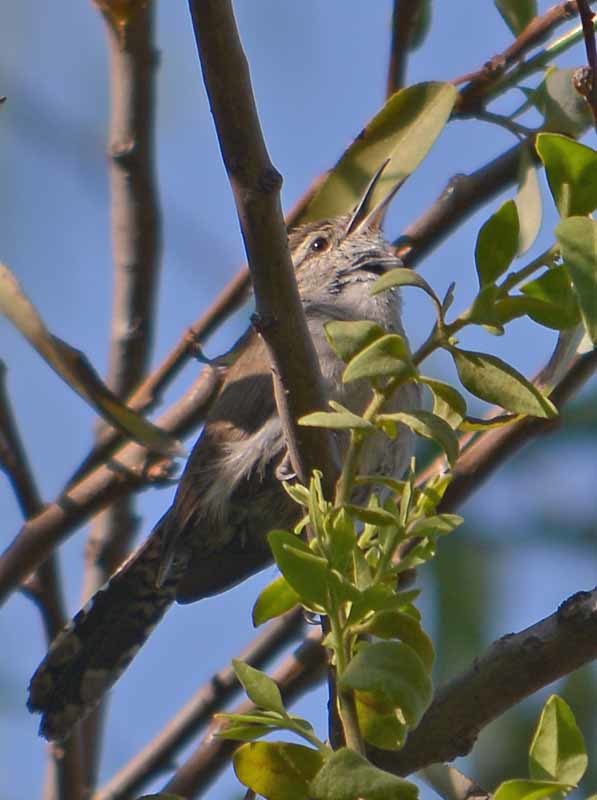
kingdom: Animalia
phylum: Chordata
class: Aves
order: Passeriformes
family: Troglodytidae
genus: Thryomanes
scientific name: Thryomanes bewickii
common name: Bewick's wren
